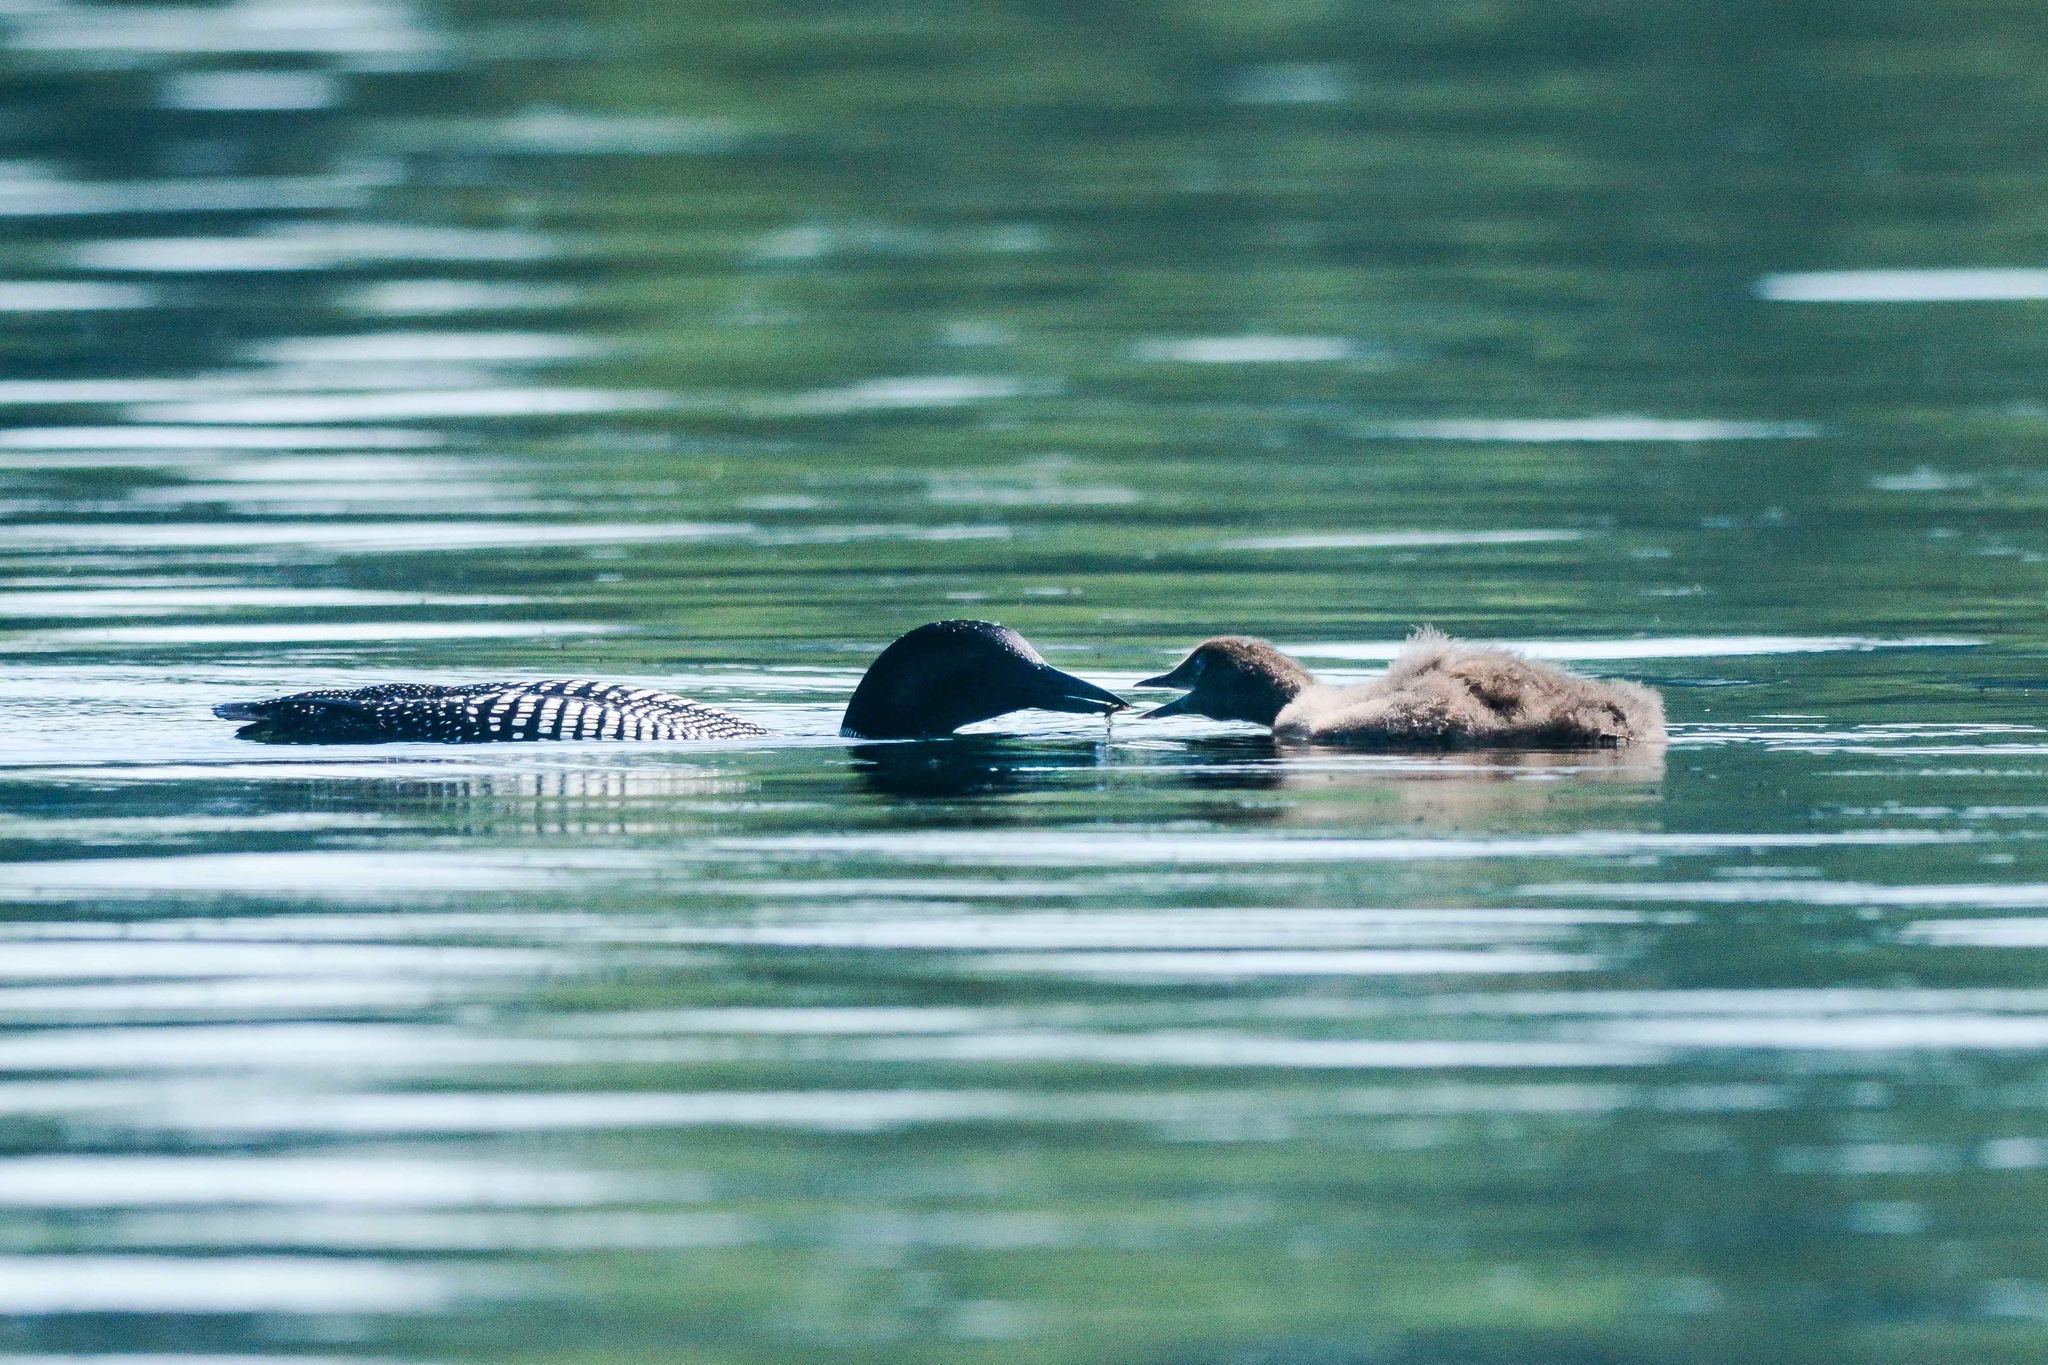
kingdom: Animalia
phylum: Chordata
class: Aves
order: Gaviiformes
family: Gaviidae
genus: Gavia
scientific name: Gavia immer
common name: Common loon
